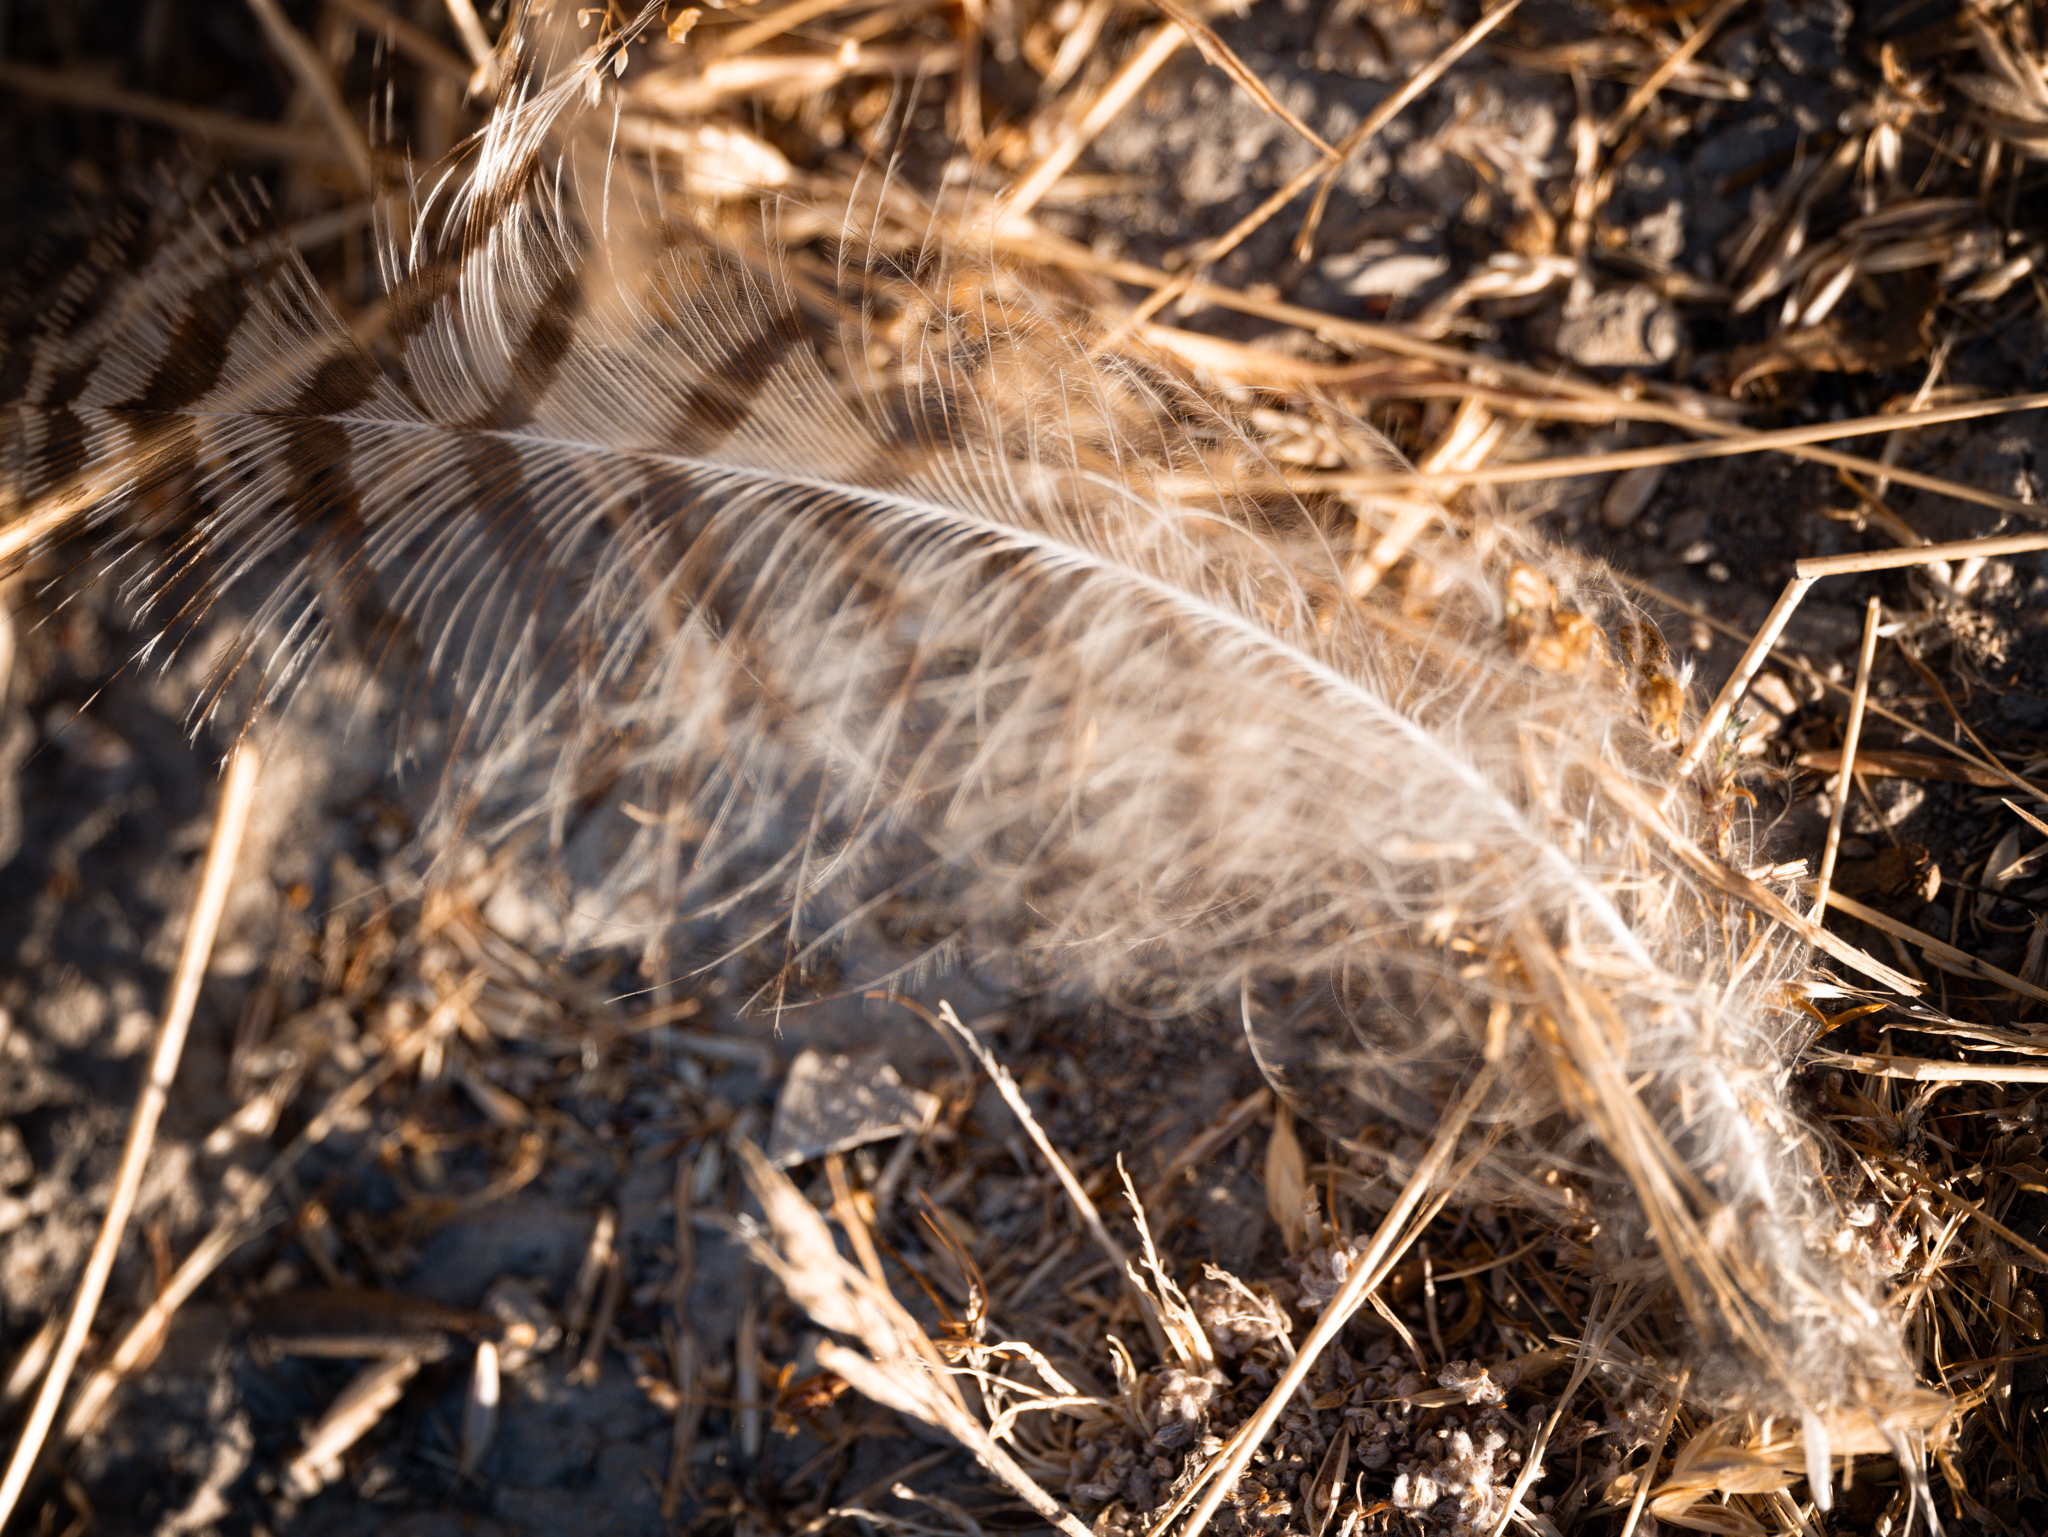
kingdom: Animalia
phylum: Chordata
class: Aves
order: Strigiformes
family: Strigidae
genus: Bubo
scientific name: Bubo virginianus
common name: Great horned owl
